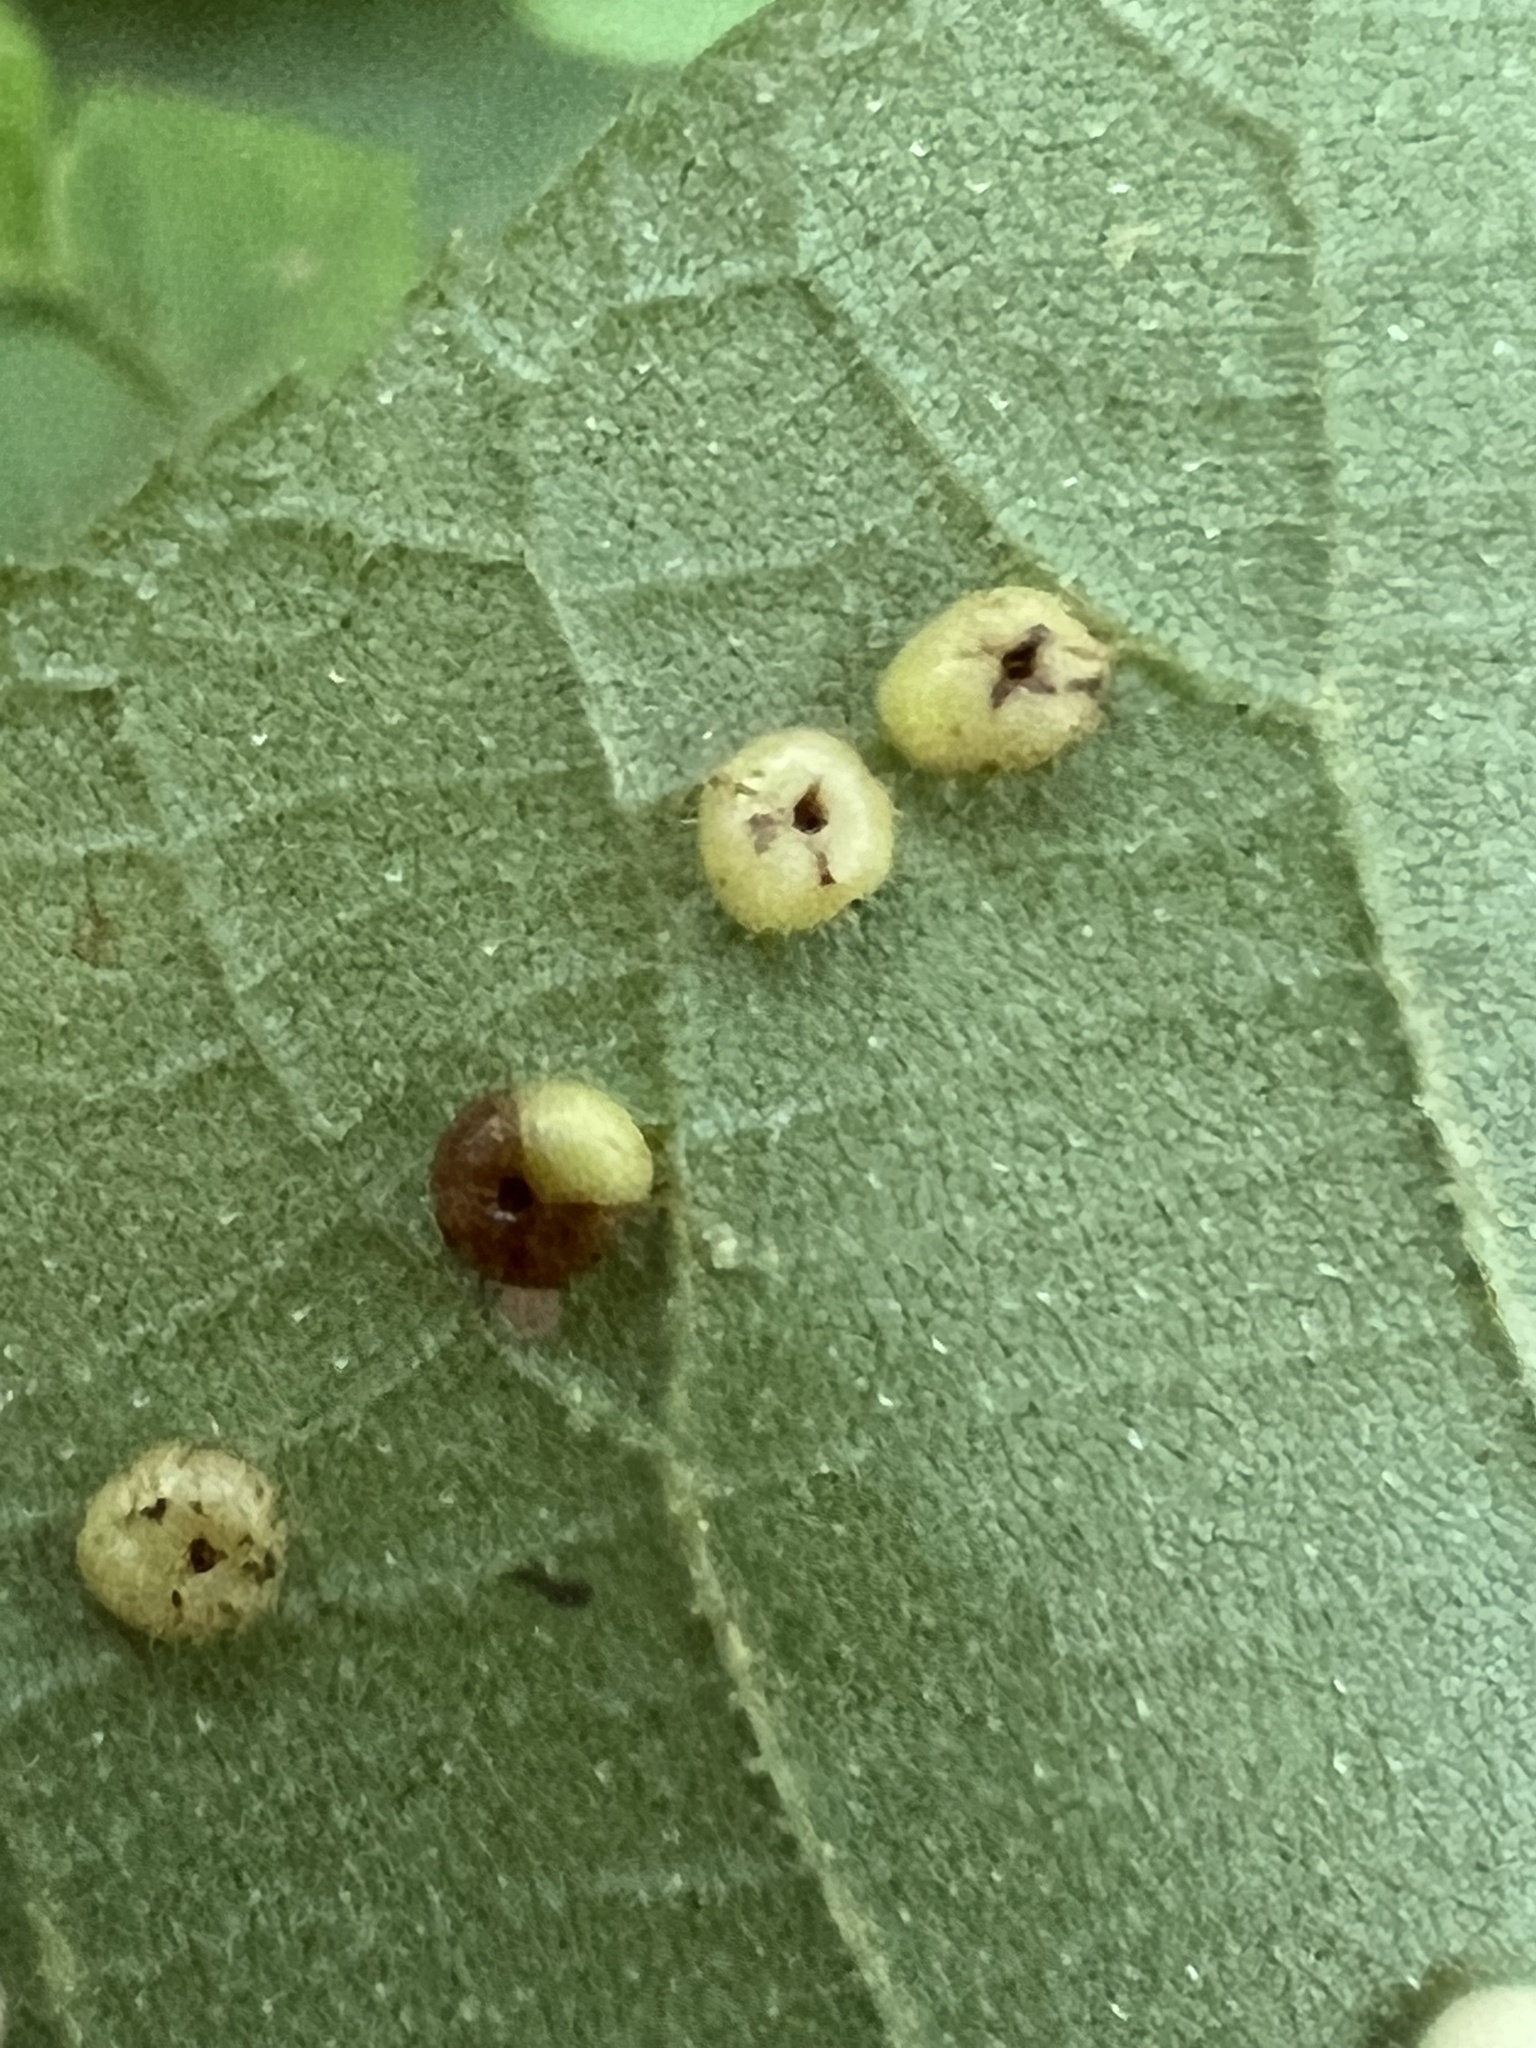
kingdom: Animalia
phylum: Arthropoda
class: Insecta
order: Diptera
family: Cecidomyiidae
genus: Caryomyia
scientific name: Caryomyia thompsoni
